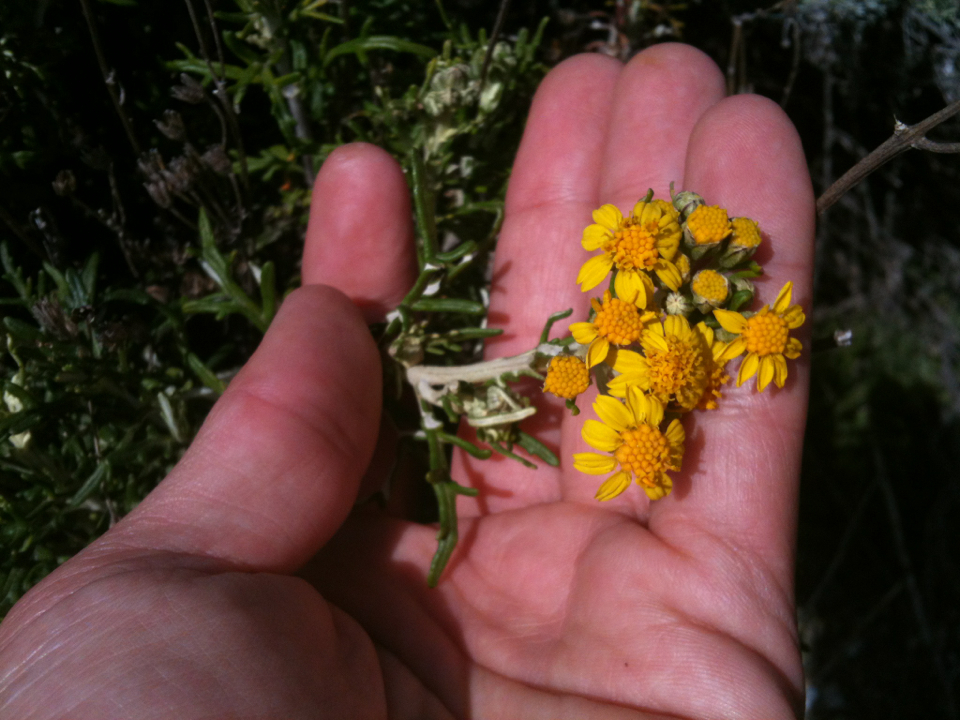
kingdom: Plantae
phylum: Tracheophyta
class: Magnoliopsida
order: Asterales
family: Asteraceae
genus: Eriophyllum
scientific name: Eriophyllum staechadifolium
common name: Lizardtail
